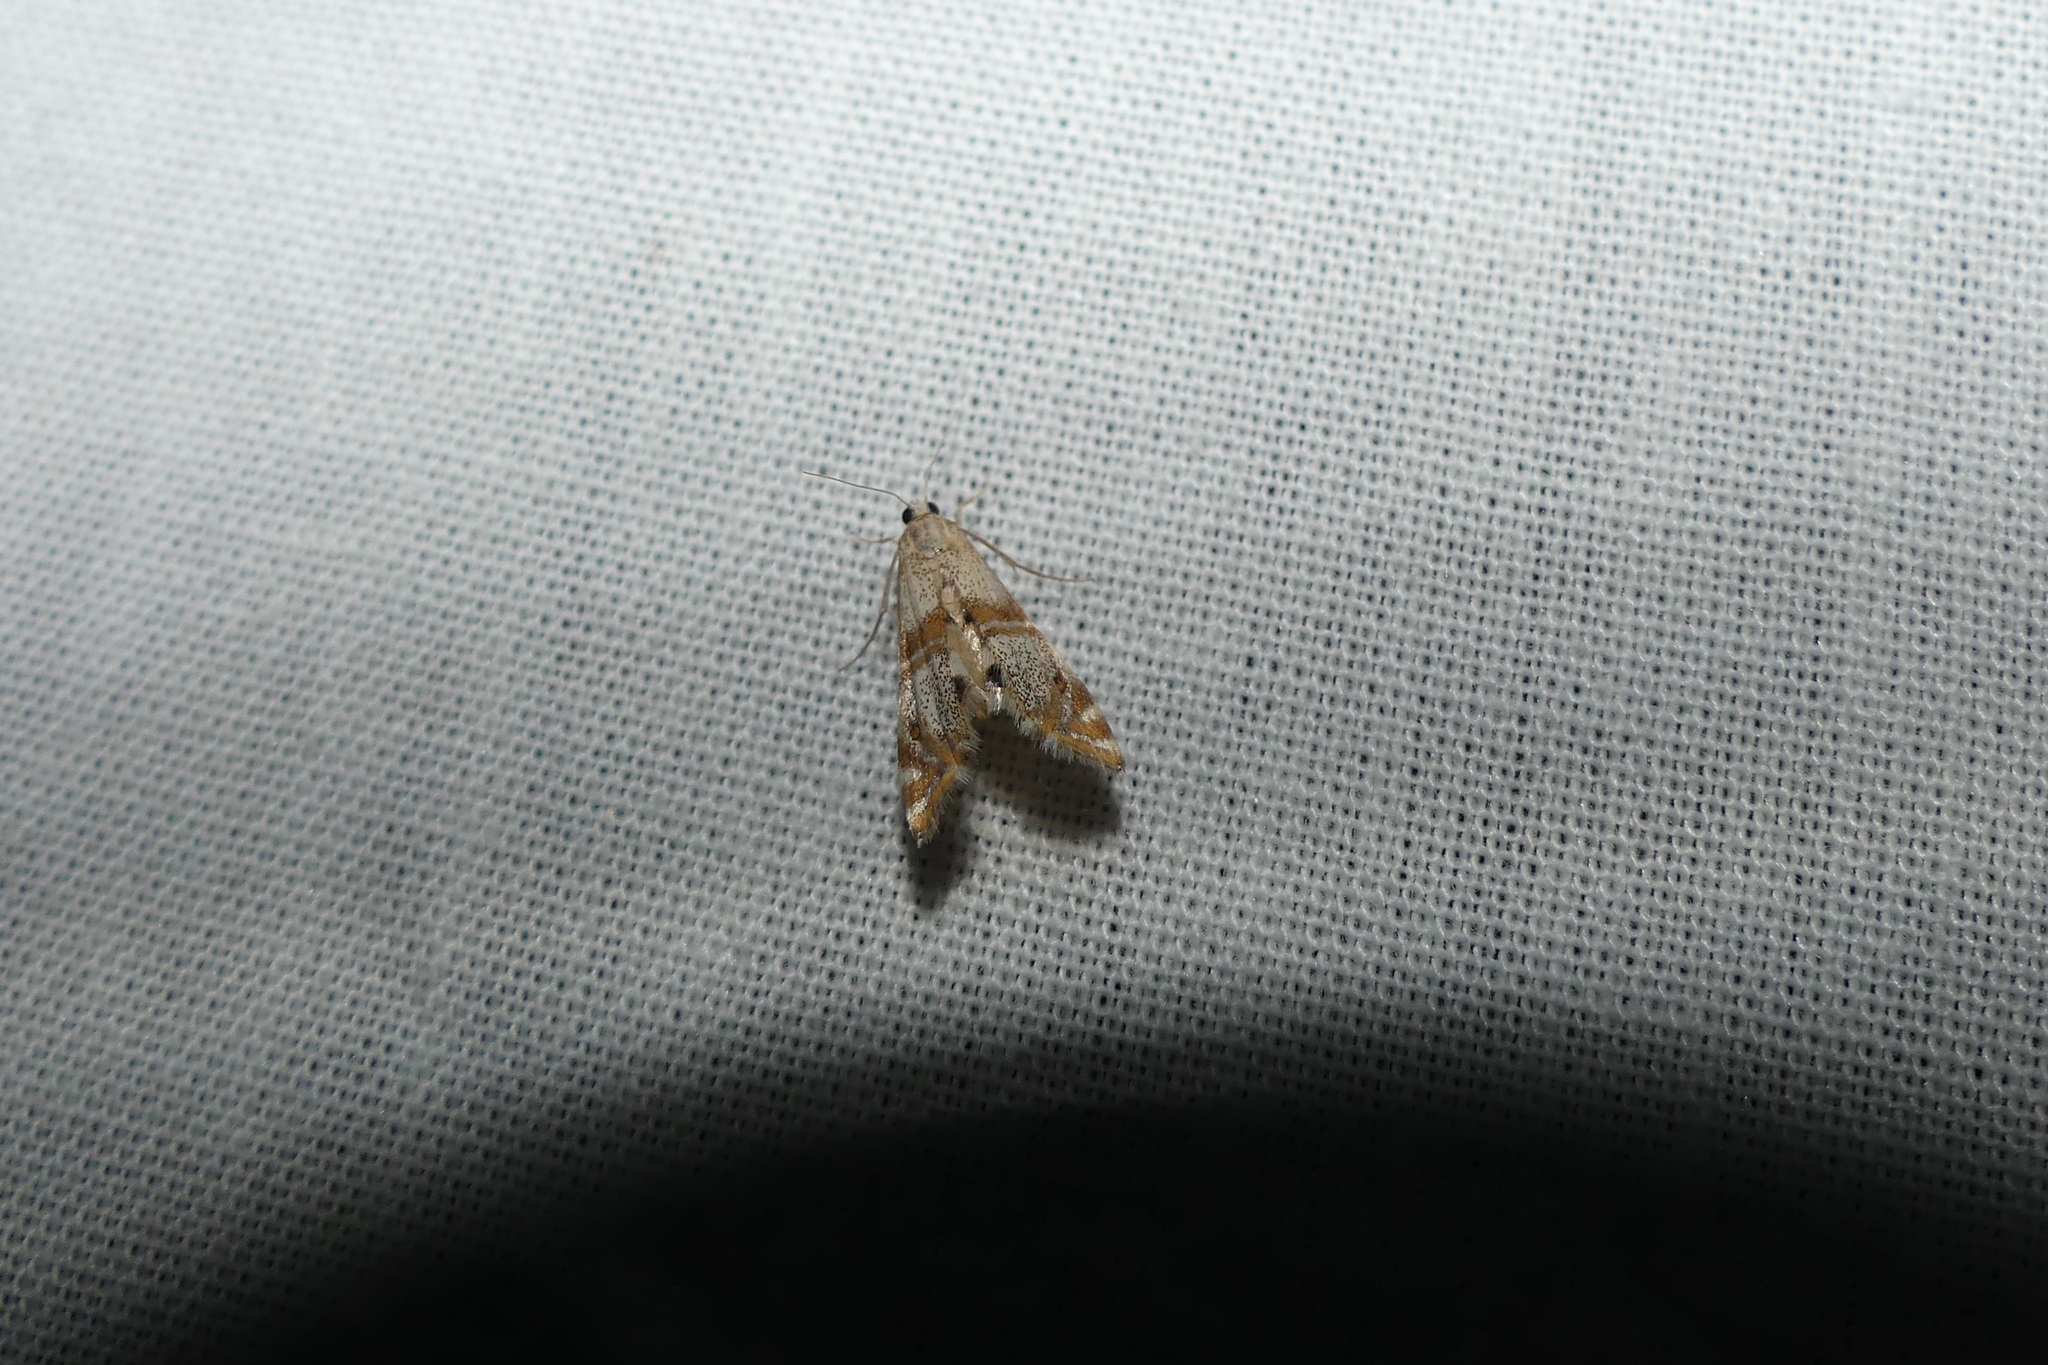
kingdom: Animalia
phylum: Arthropoda
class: Insecta
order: Lepidoptera
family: Crambidae
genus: Petrophila
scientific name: Petrophila bifascialis
